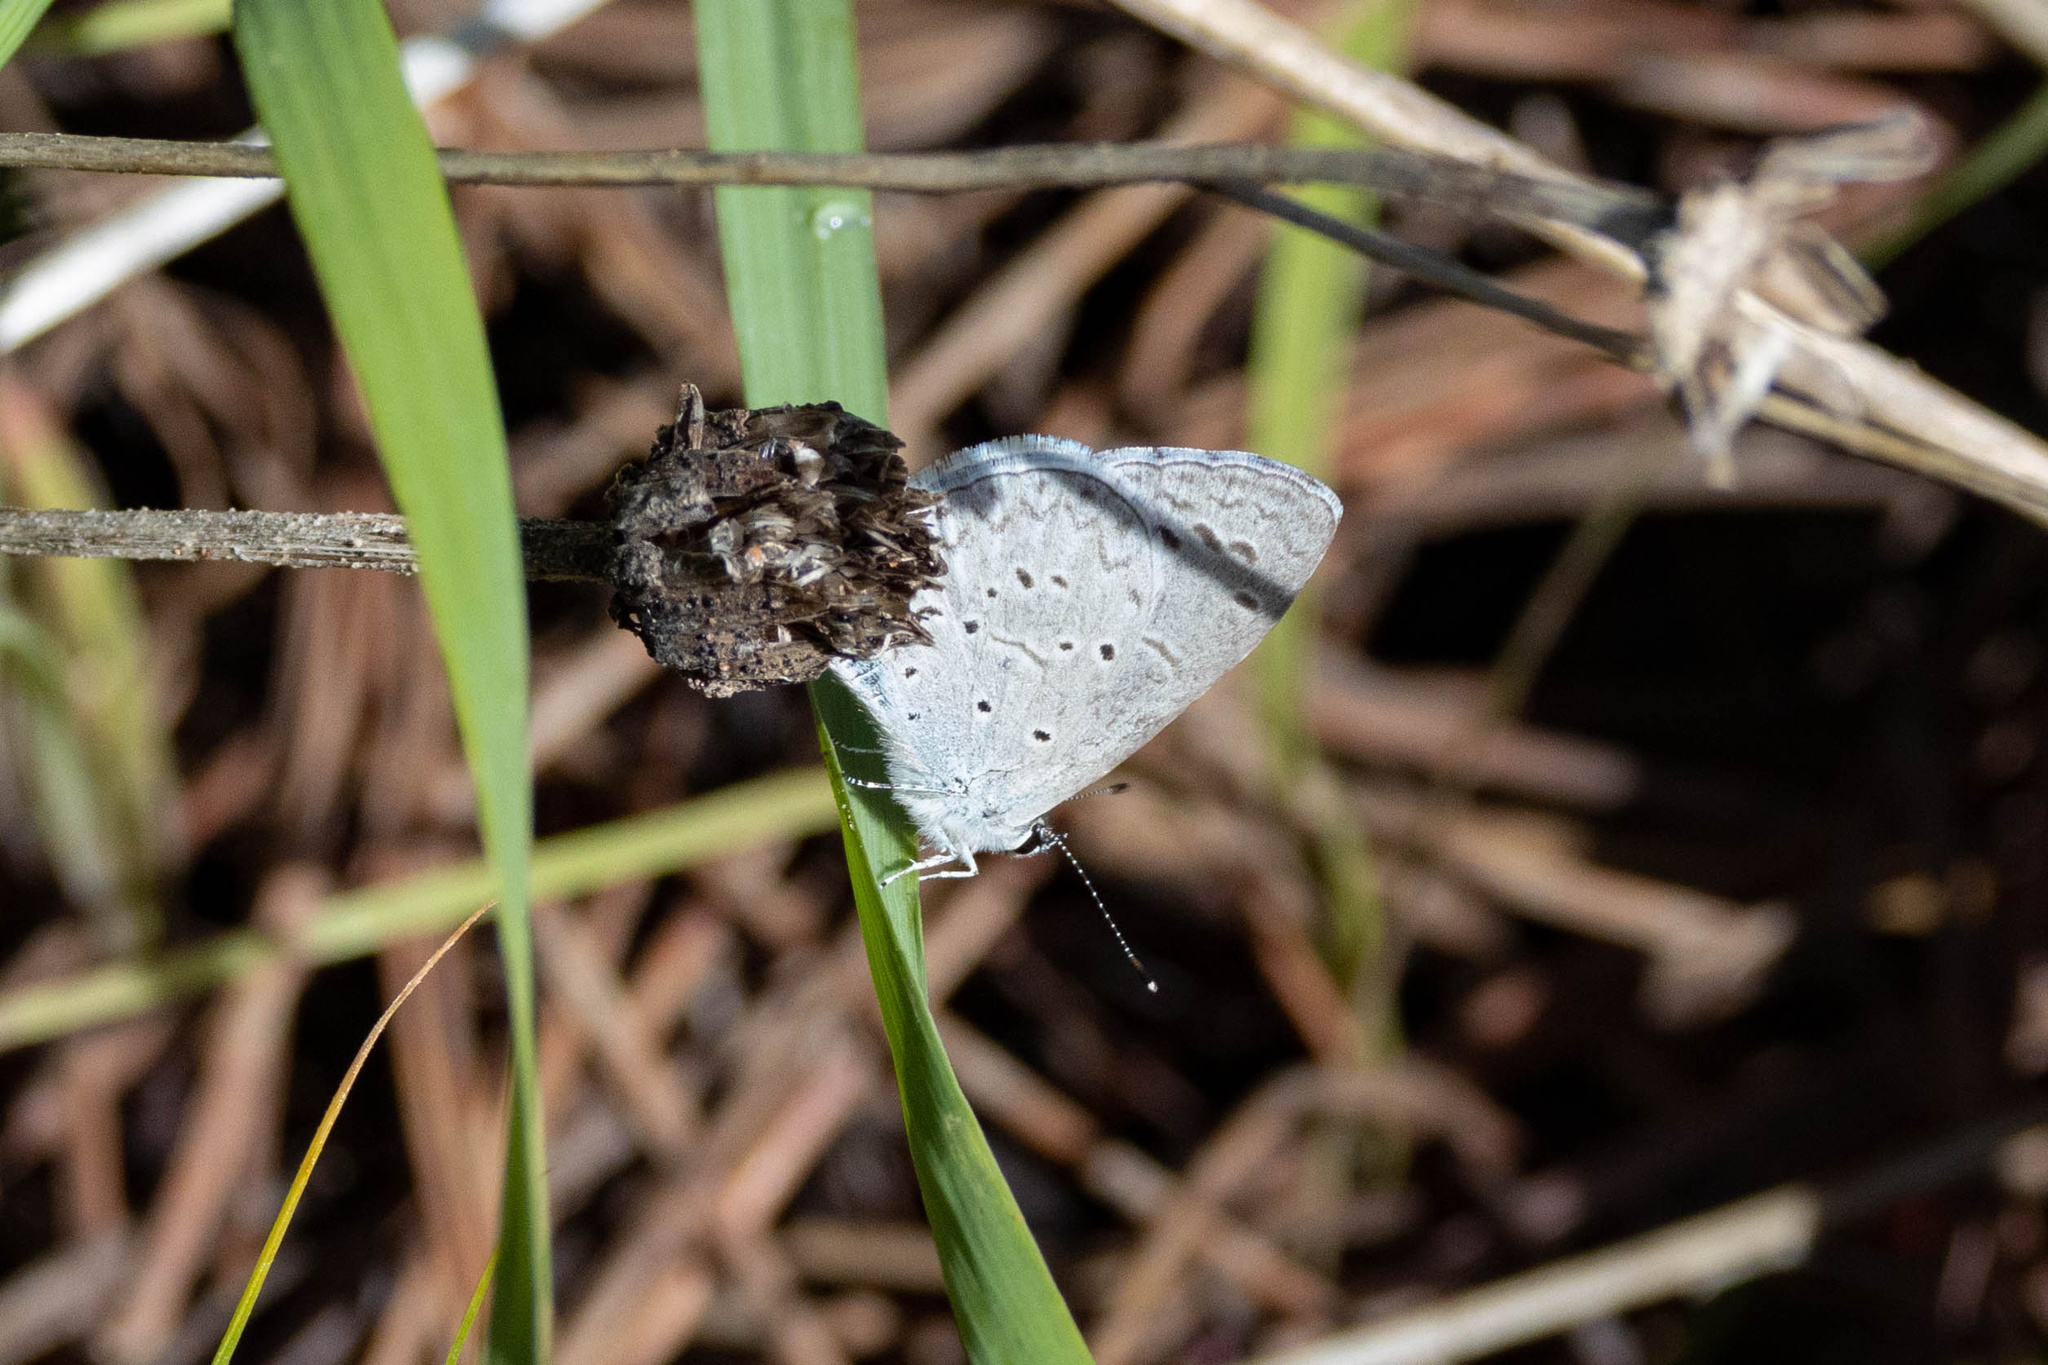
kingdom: Animalia
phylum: Arthropoda
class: Insecta
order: Lepidoptera
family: Lycaenidae
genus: Celastrina
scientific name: Celastrina ladon
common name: Spring azure
